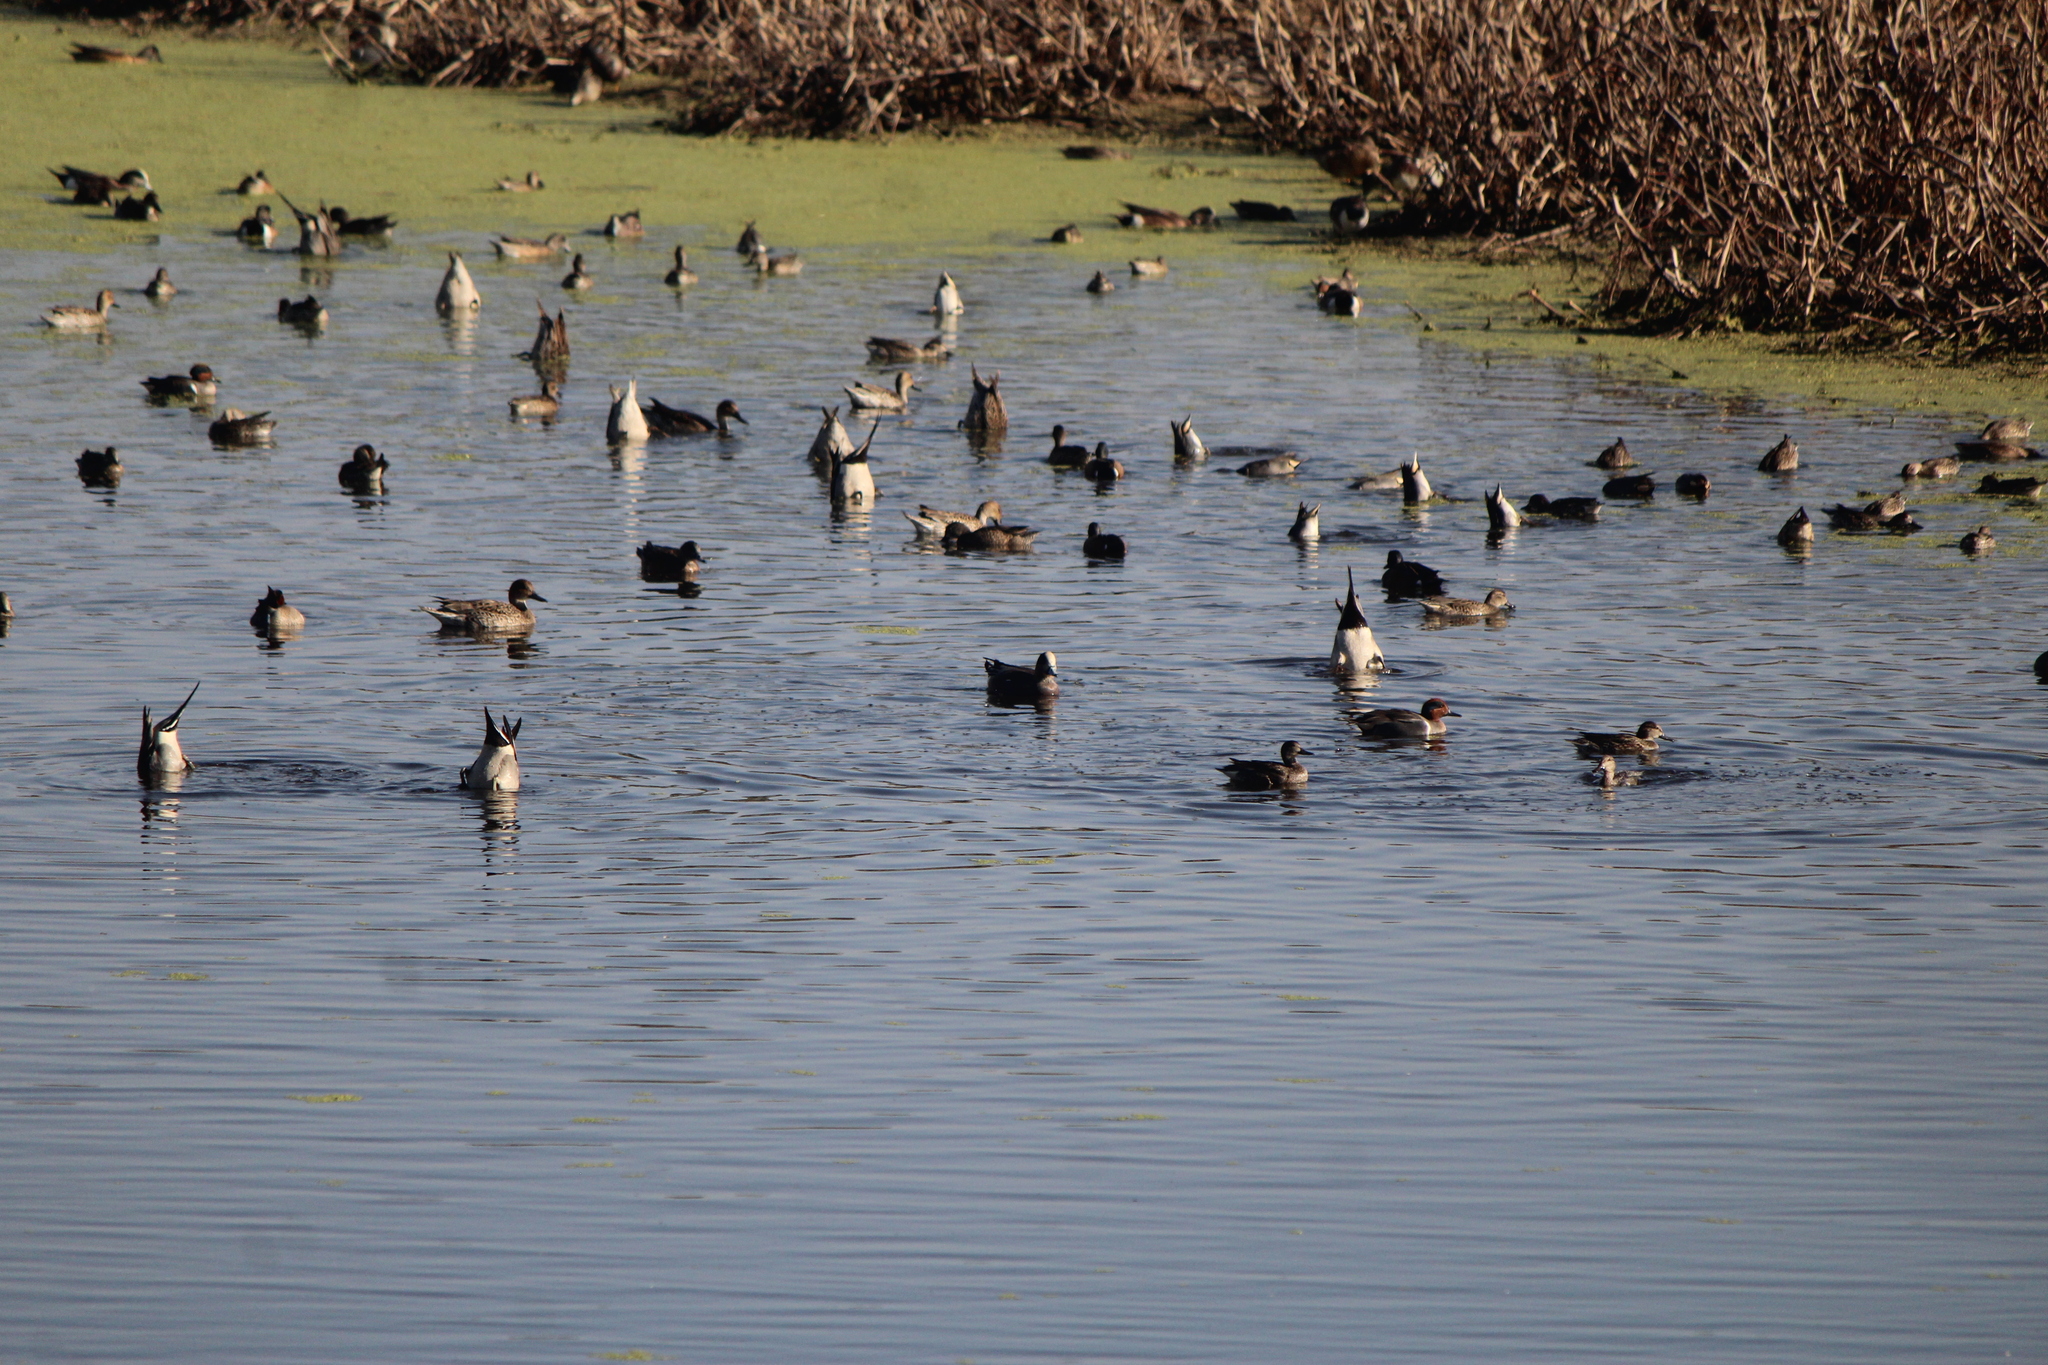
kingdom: Animalia
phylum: Chordata
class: Aves
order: Anseriformes
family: Anatidae
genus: Mareca
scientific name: Mareca americana
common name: American wigeon
